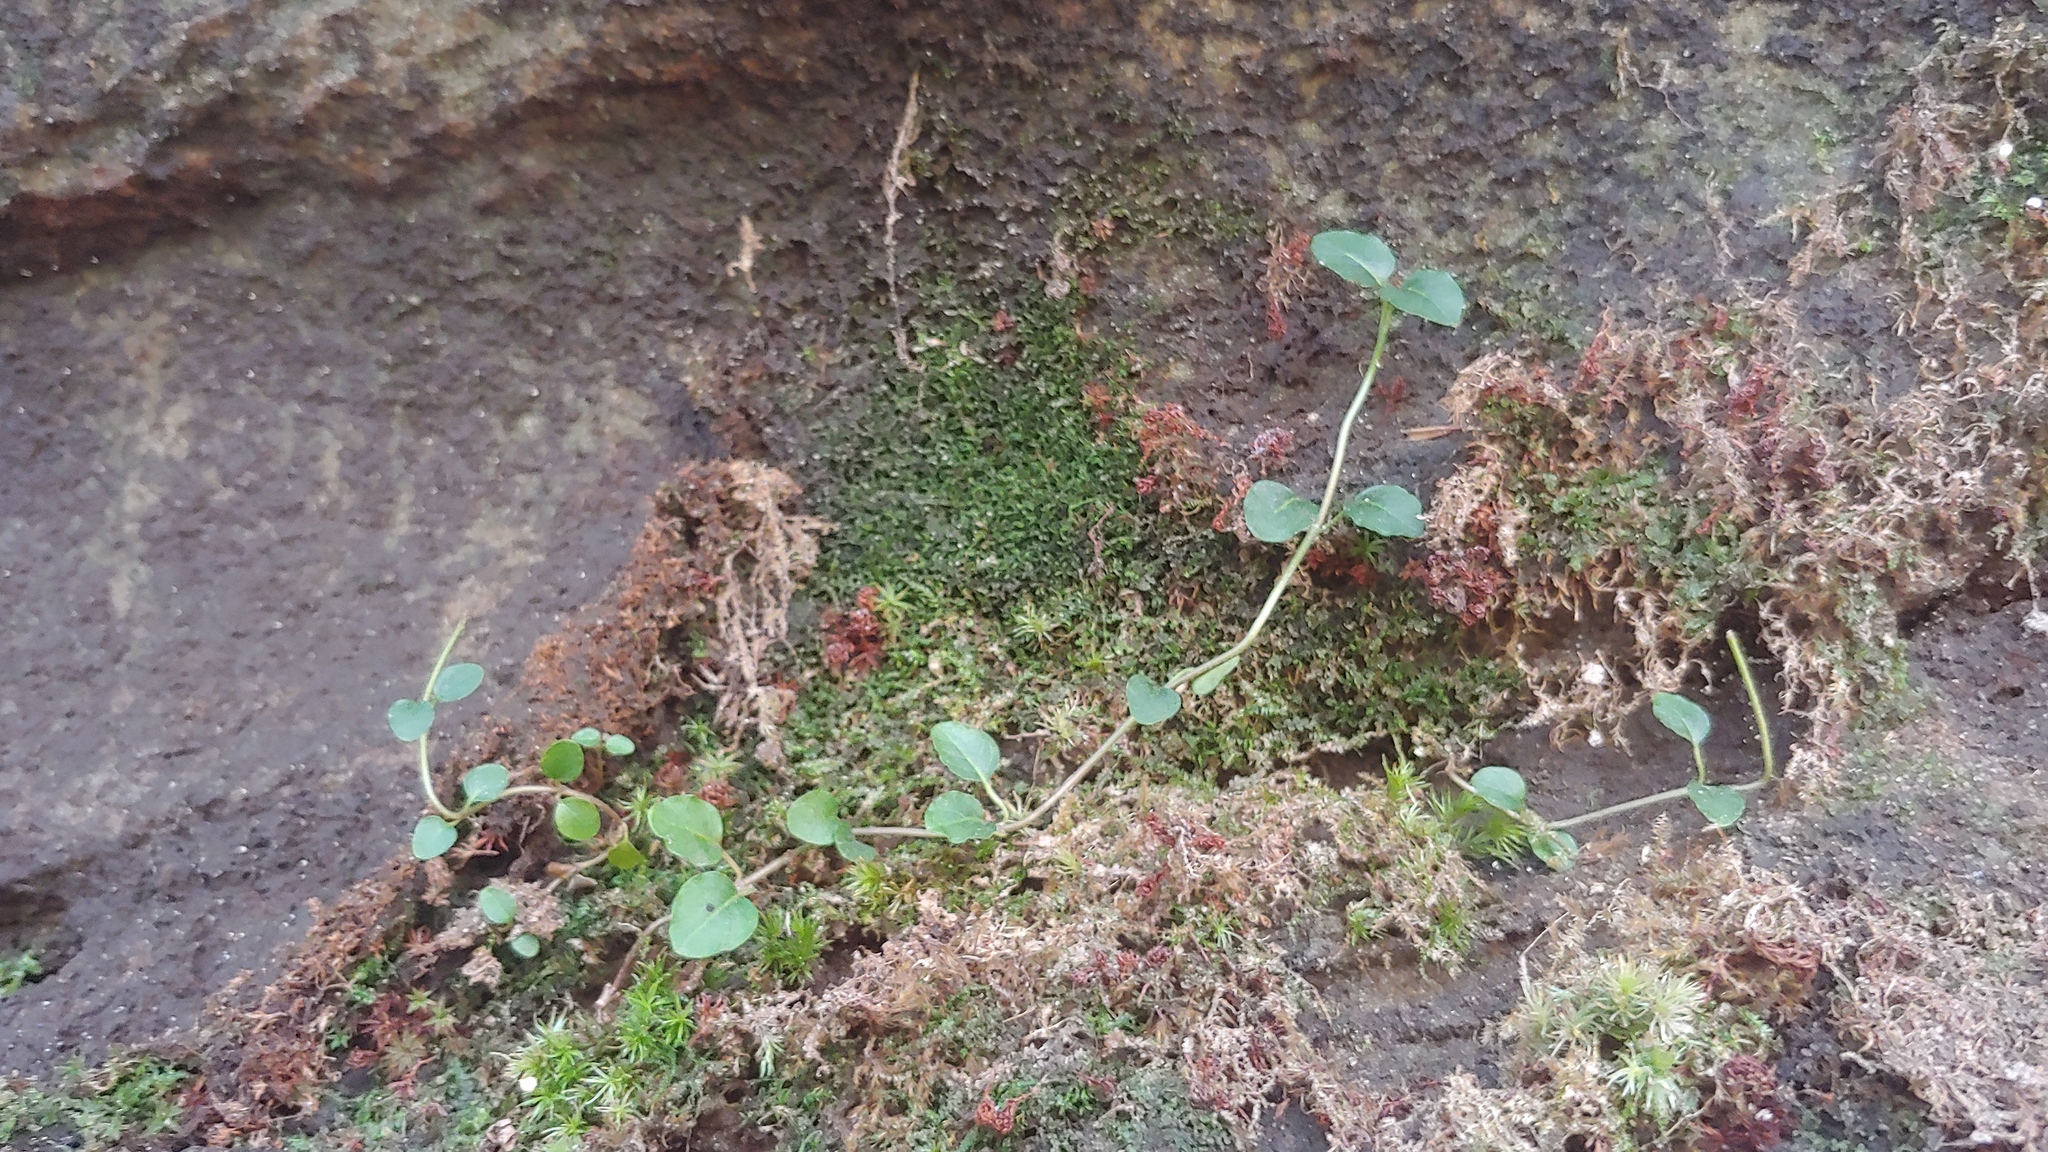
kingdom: Plantae
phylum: Tracheophyta
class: Magnoliopsida
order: Gentianales
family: Rubiaceae
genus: Mitchella
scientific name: Mitchella repens
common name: Partridge-berry
